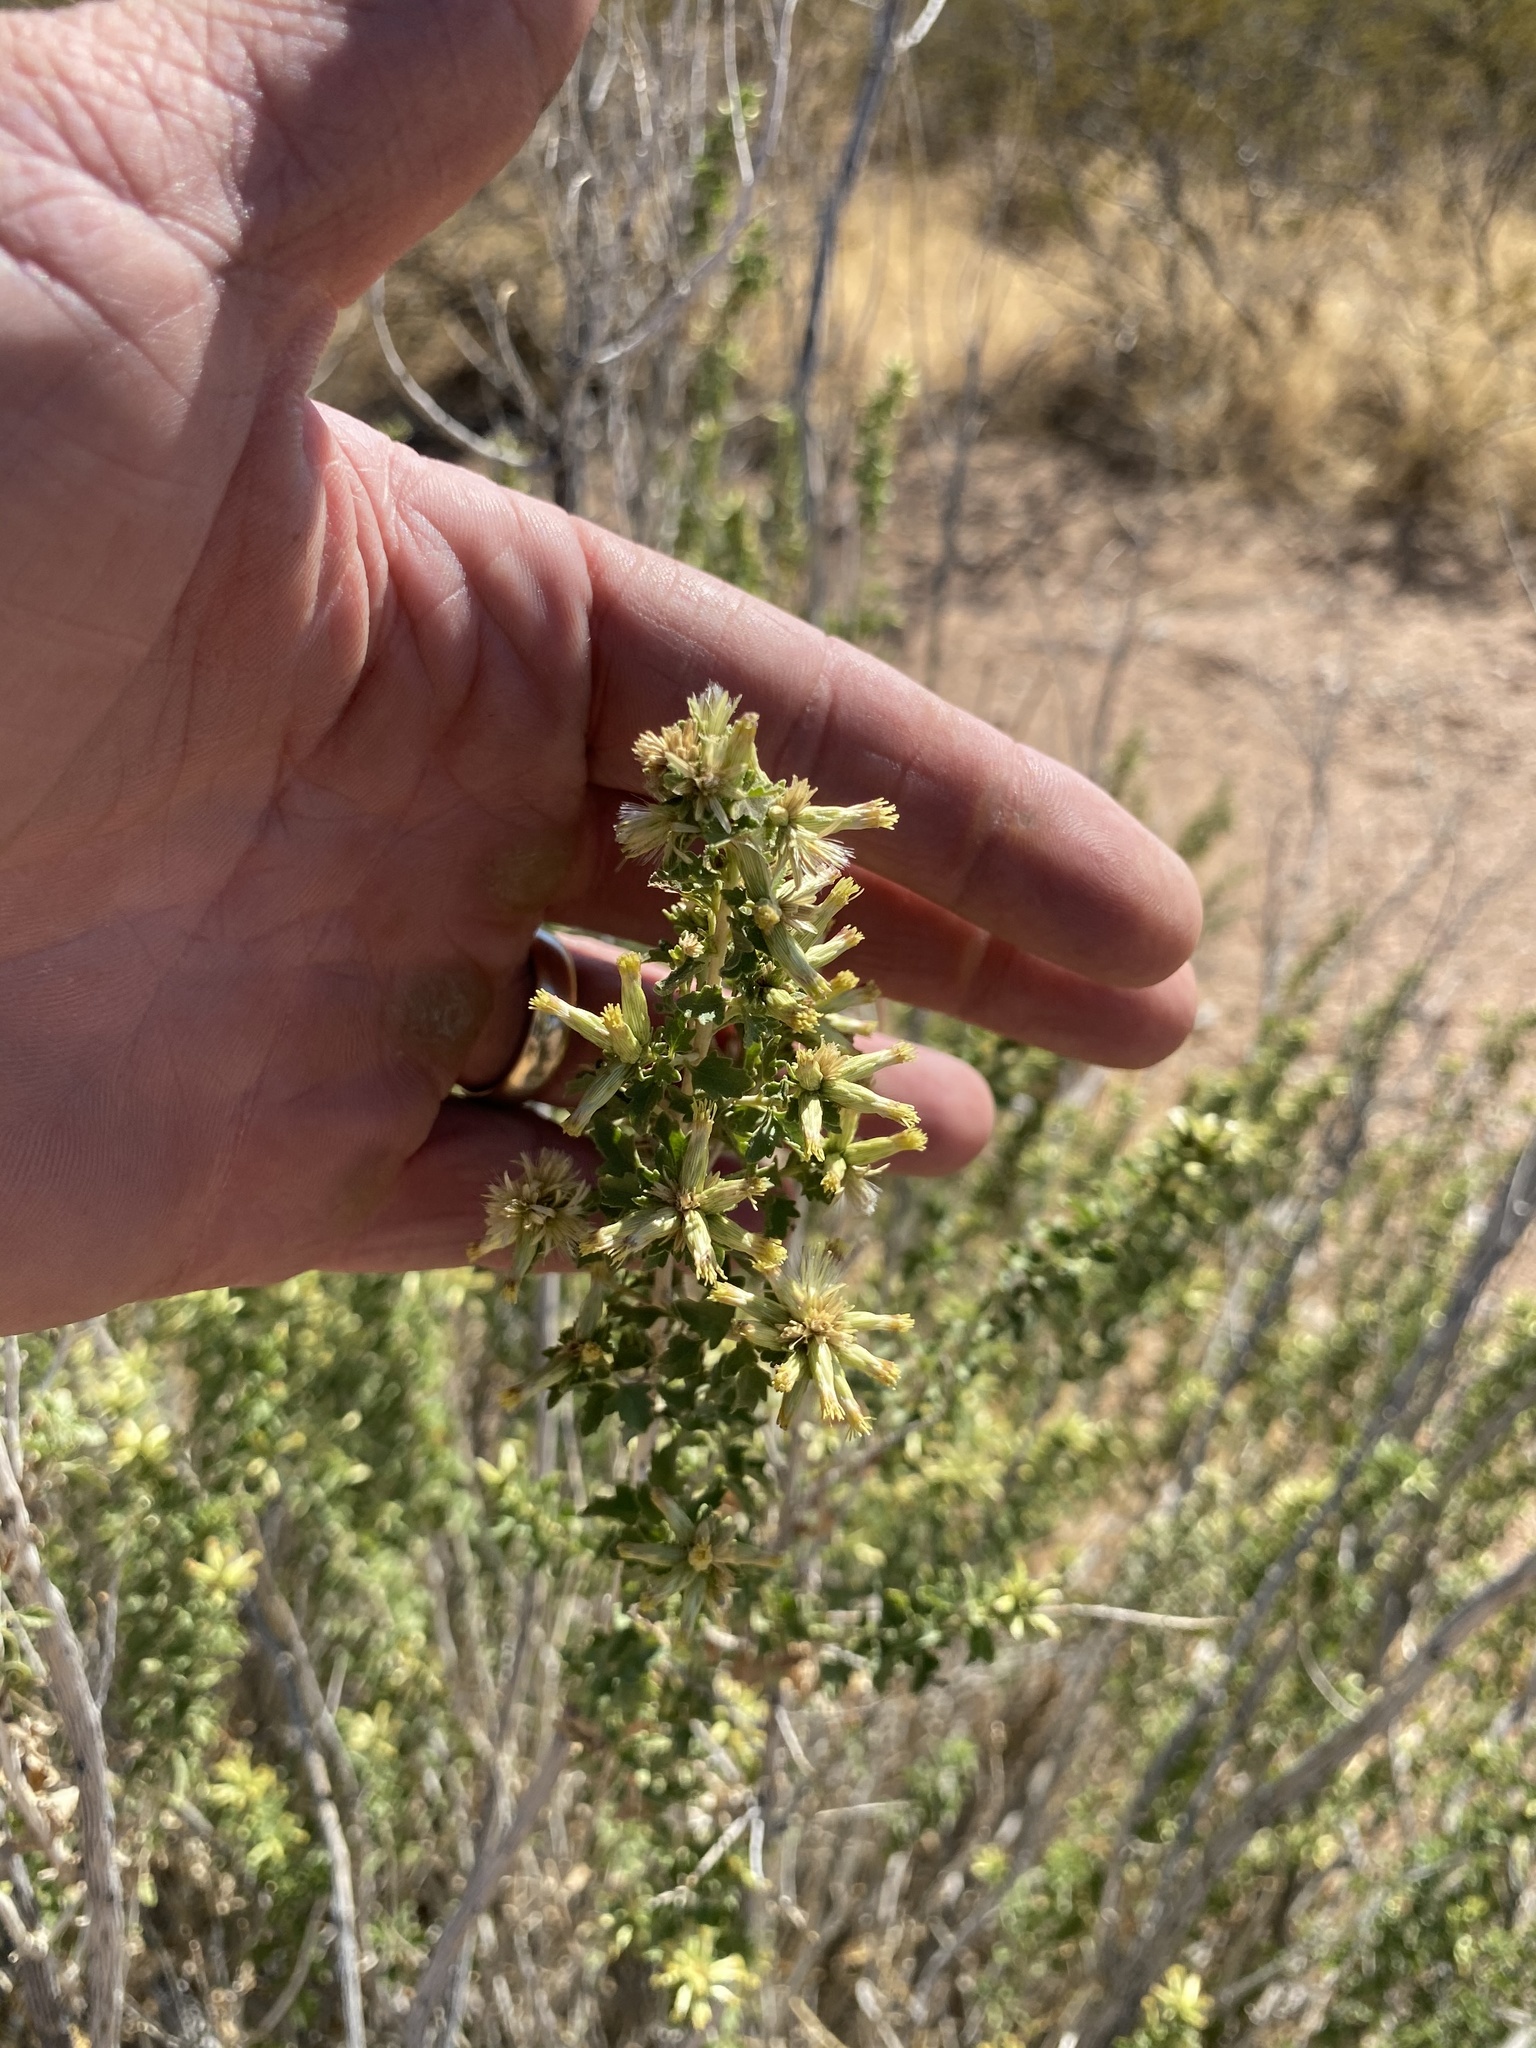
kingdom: Plantae
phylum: Tracheophyta
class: Magnoliopsida
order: Asterales
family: Asteraceae
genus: Brickellia
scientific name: Brickellia laciniata
